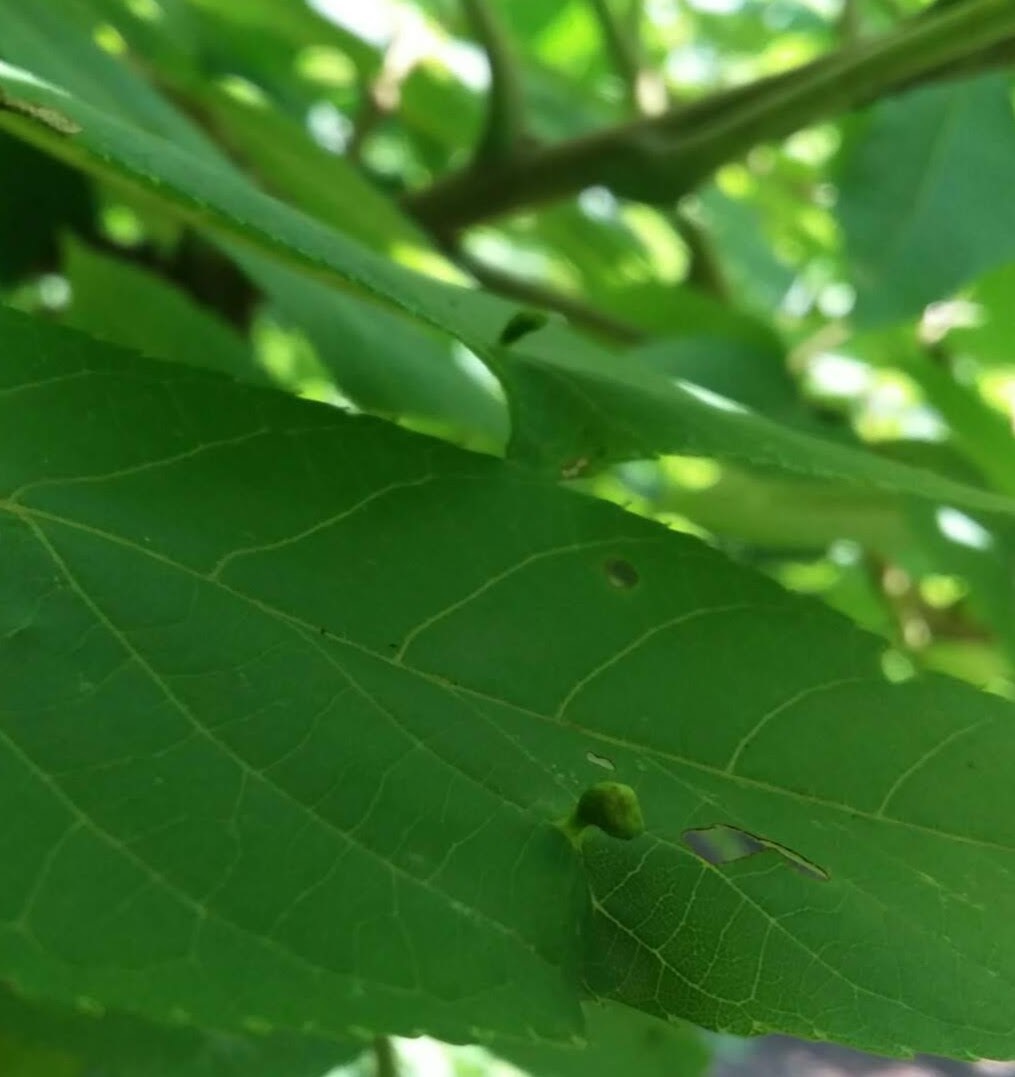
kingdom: Animalia
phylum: Arthropoda
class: Arachnida
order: Trombidiformes
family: Eriophyidae
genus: Aceria
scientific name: Aceria brachytarsus
